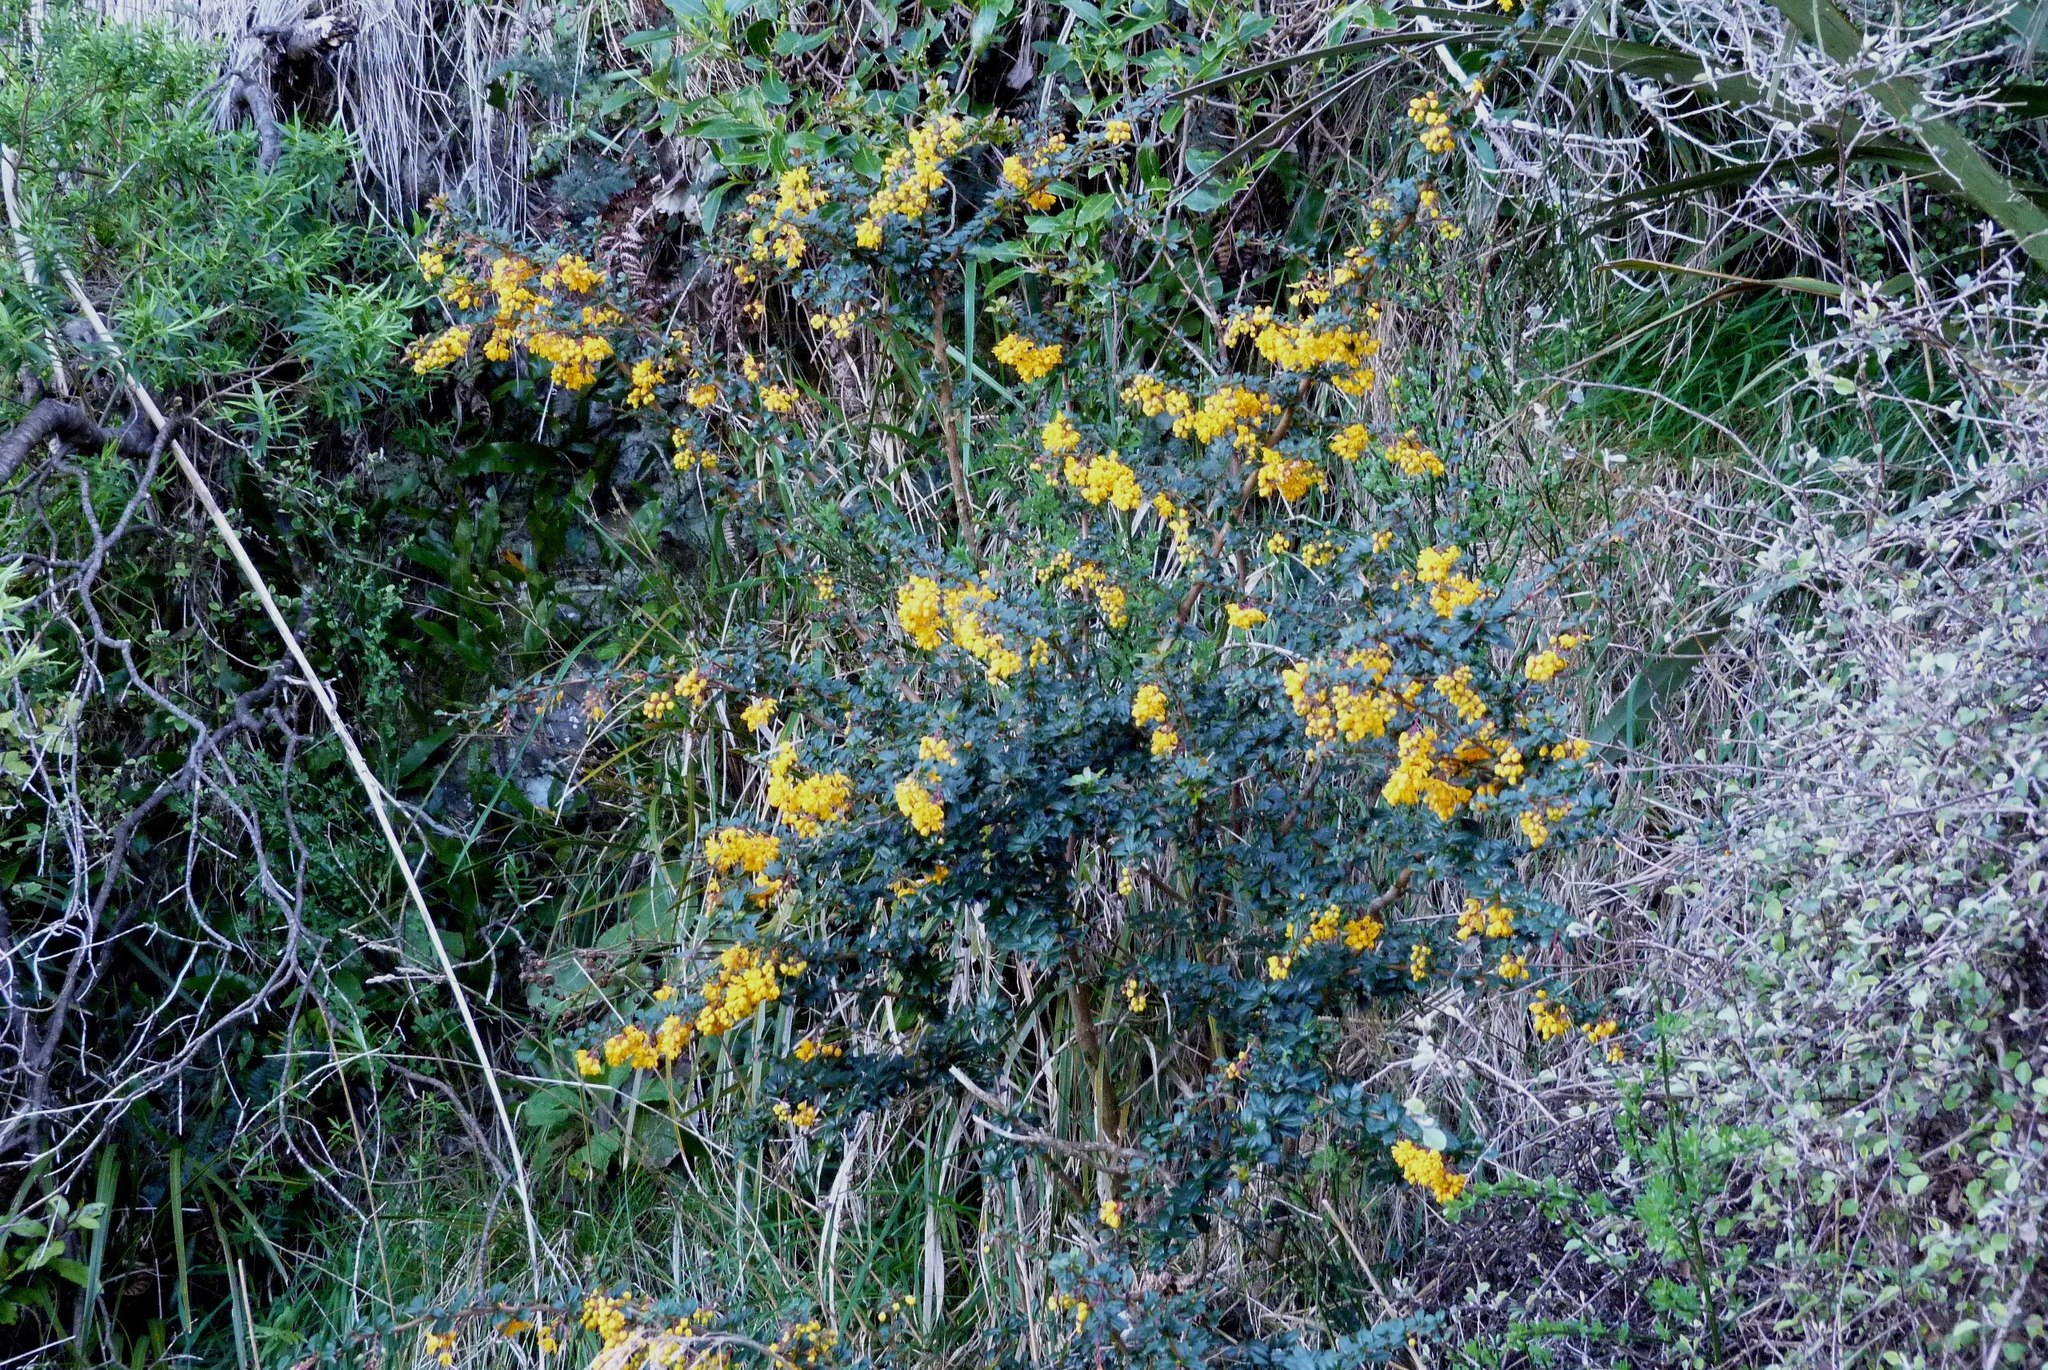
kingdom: Plantae
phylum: Tracheophyta
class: Magnoliopsida
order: Ranunculales
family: Berberidaceae
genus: Berberis
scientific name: Berberis darwinii
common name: Darwin's barberry
